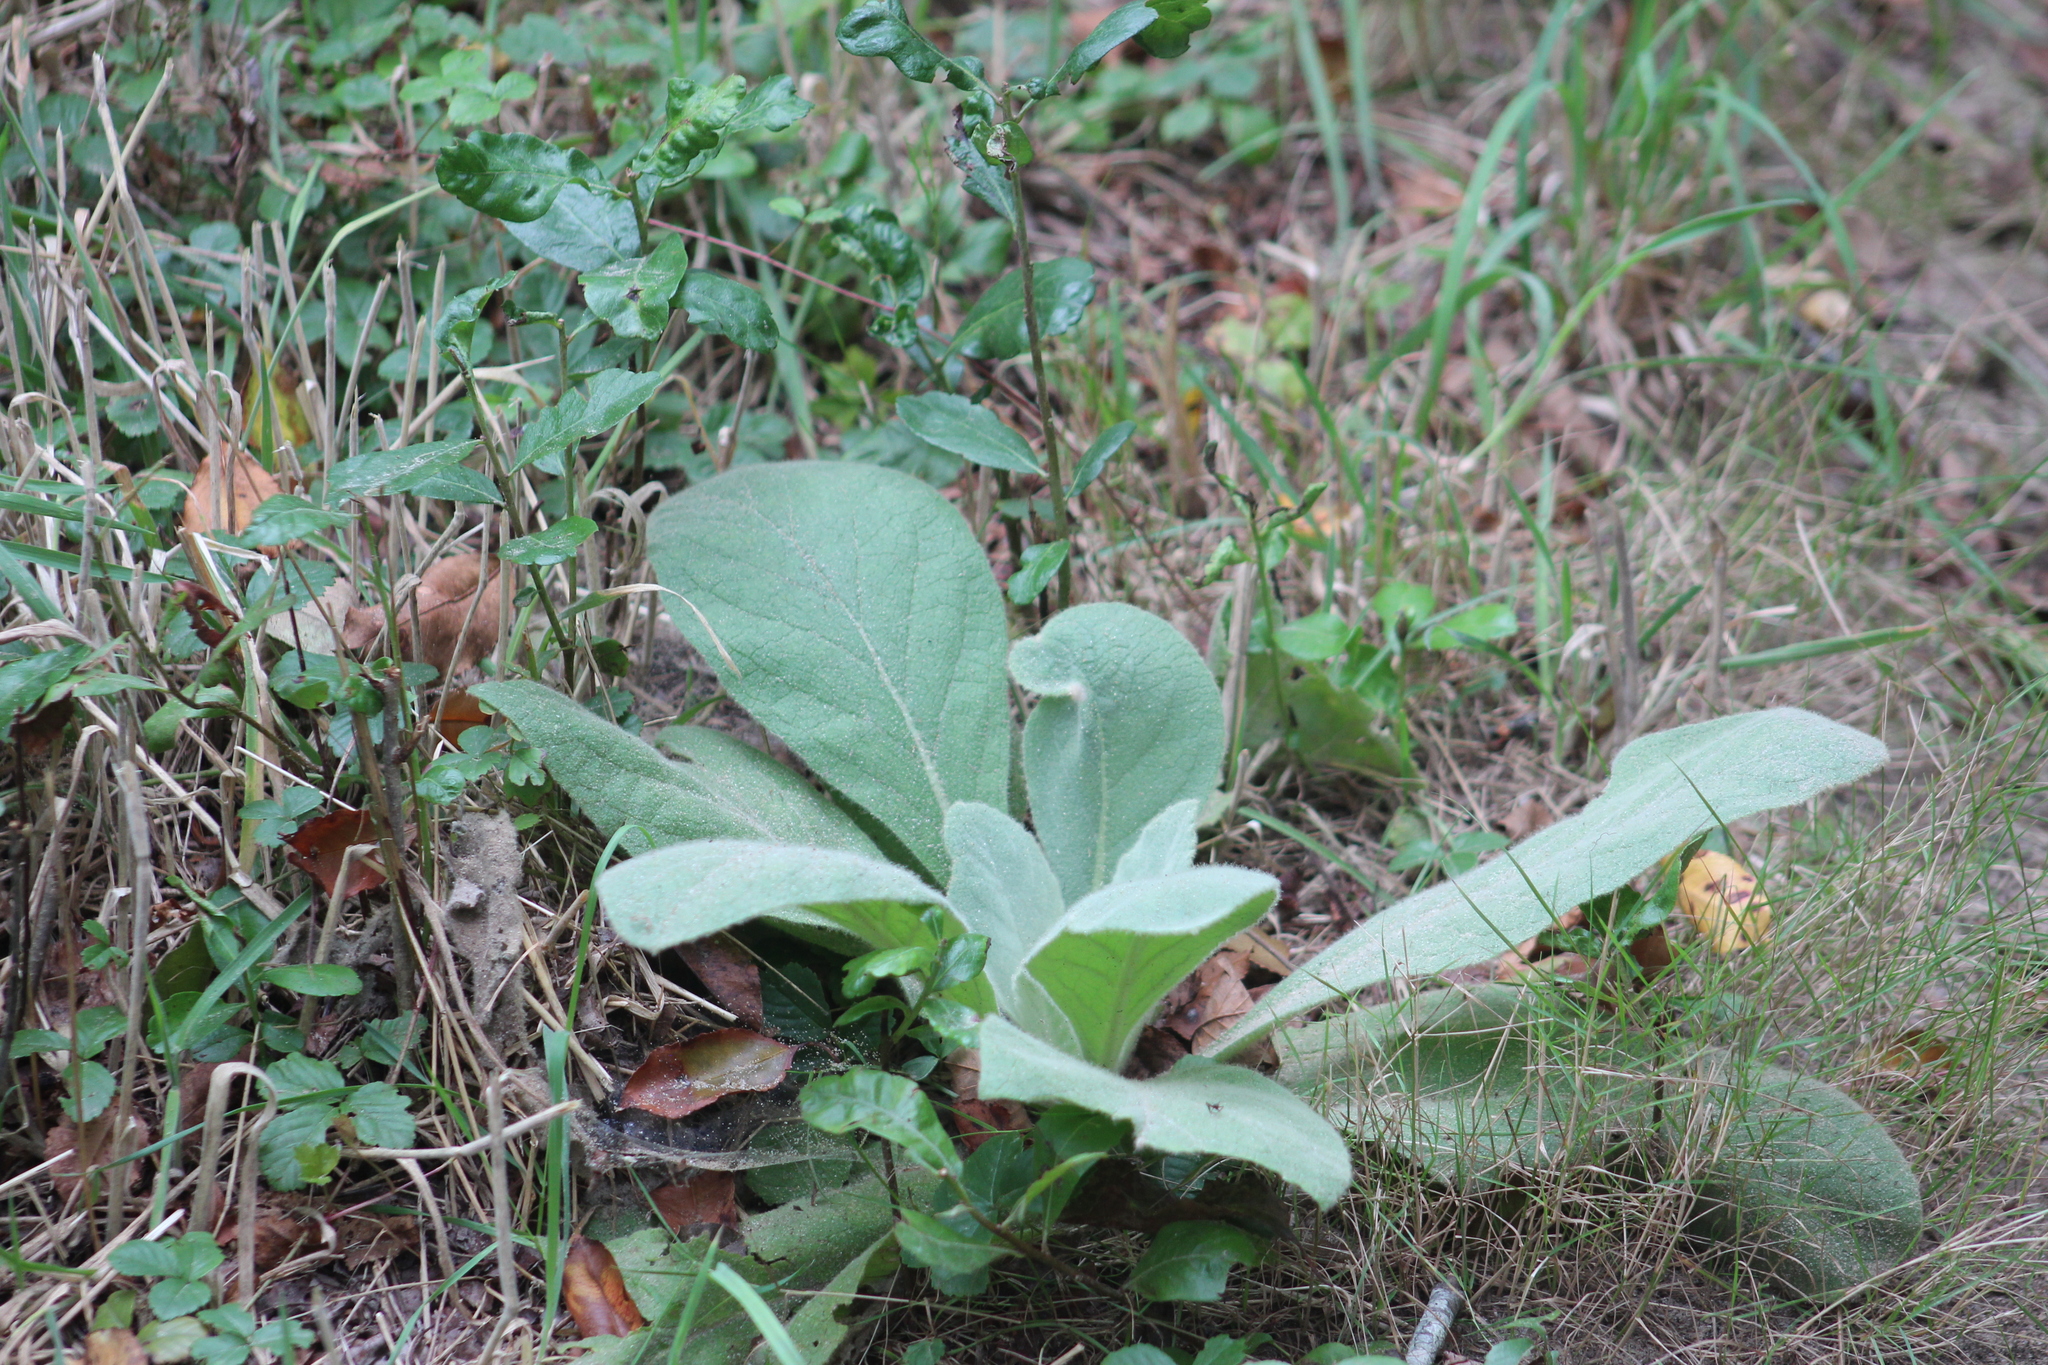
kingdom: Plantae
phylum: Tracheophyta
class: Magnoliopsida
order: Lamiales
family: Scrophulariaceae
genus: Verbascum
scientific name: Verbascum thapsus
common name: Common mullein
